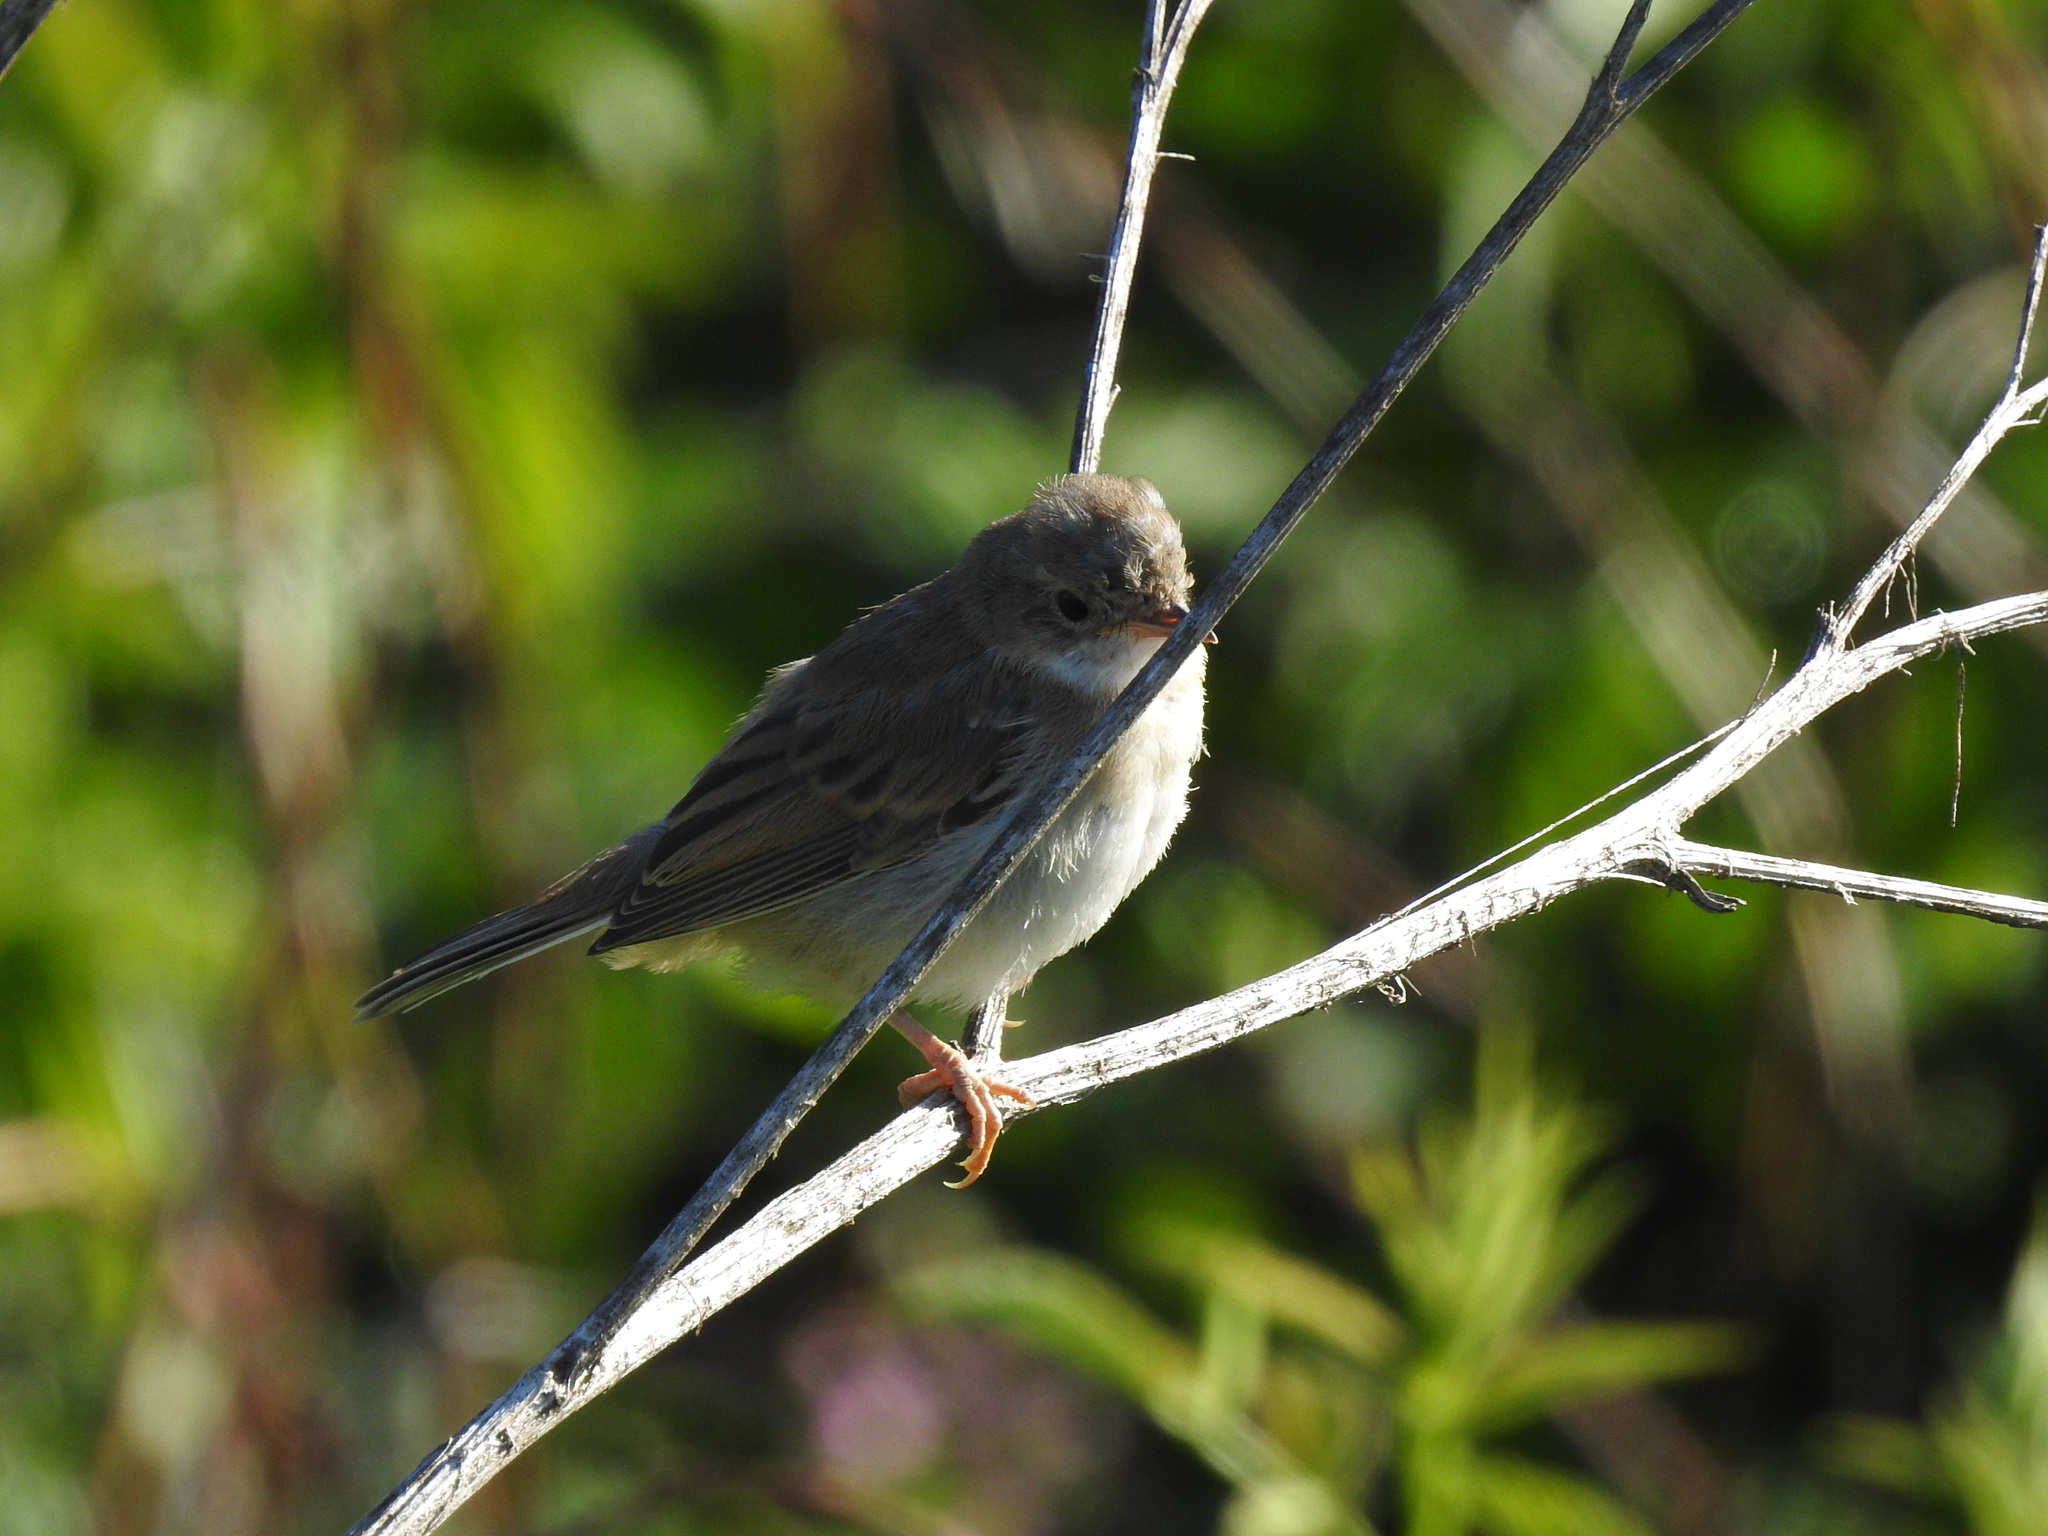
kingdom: Animalia
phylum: Chordata
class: Aves
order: Passeriformes
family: Sylviidae
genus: Sylvia
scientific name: Sylvia communis
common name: Common whitethroat
